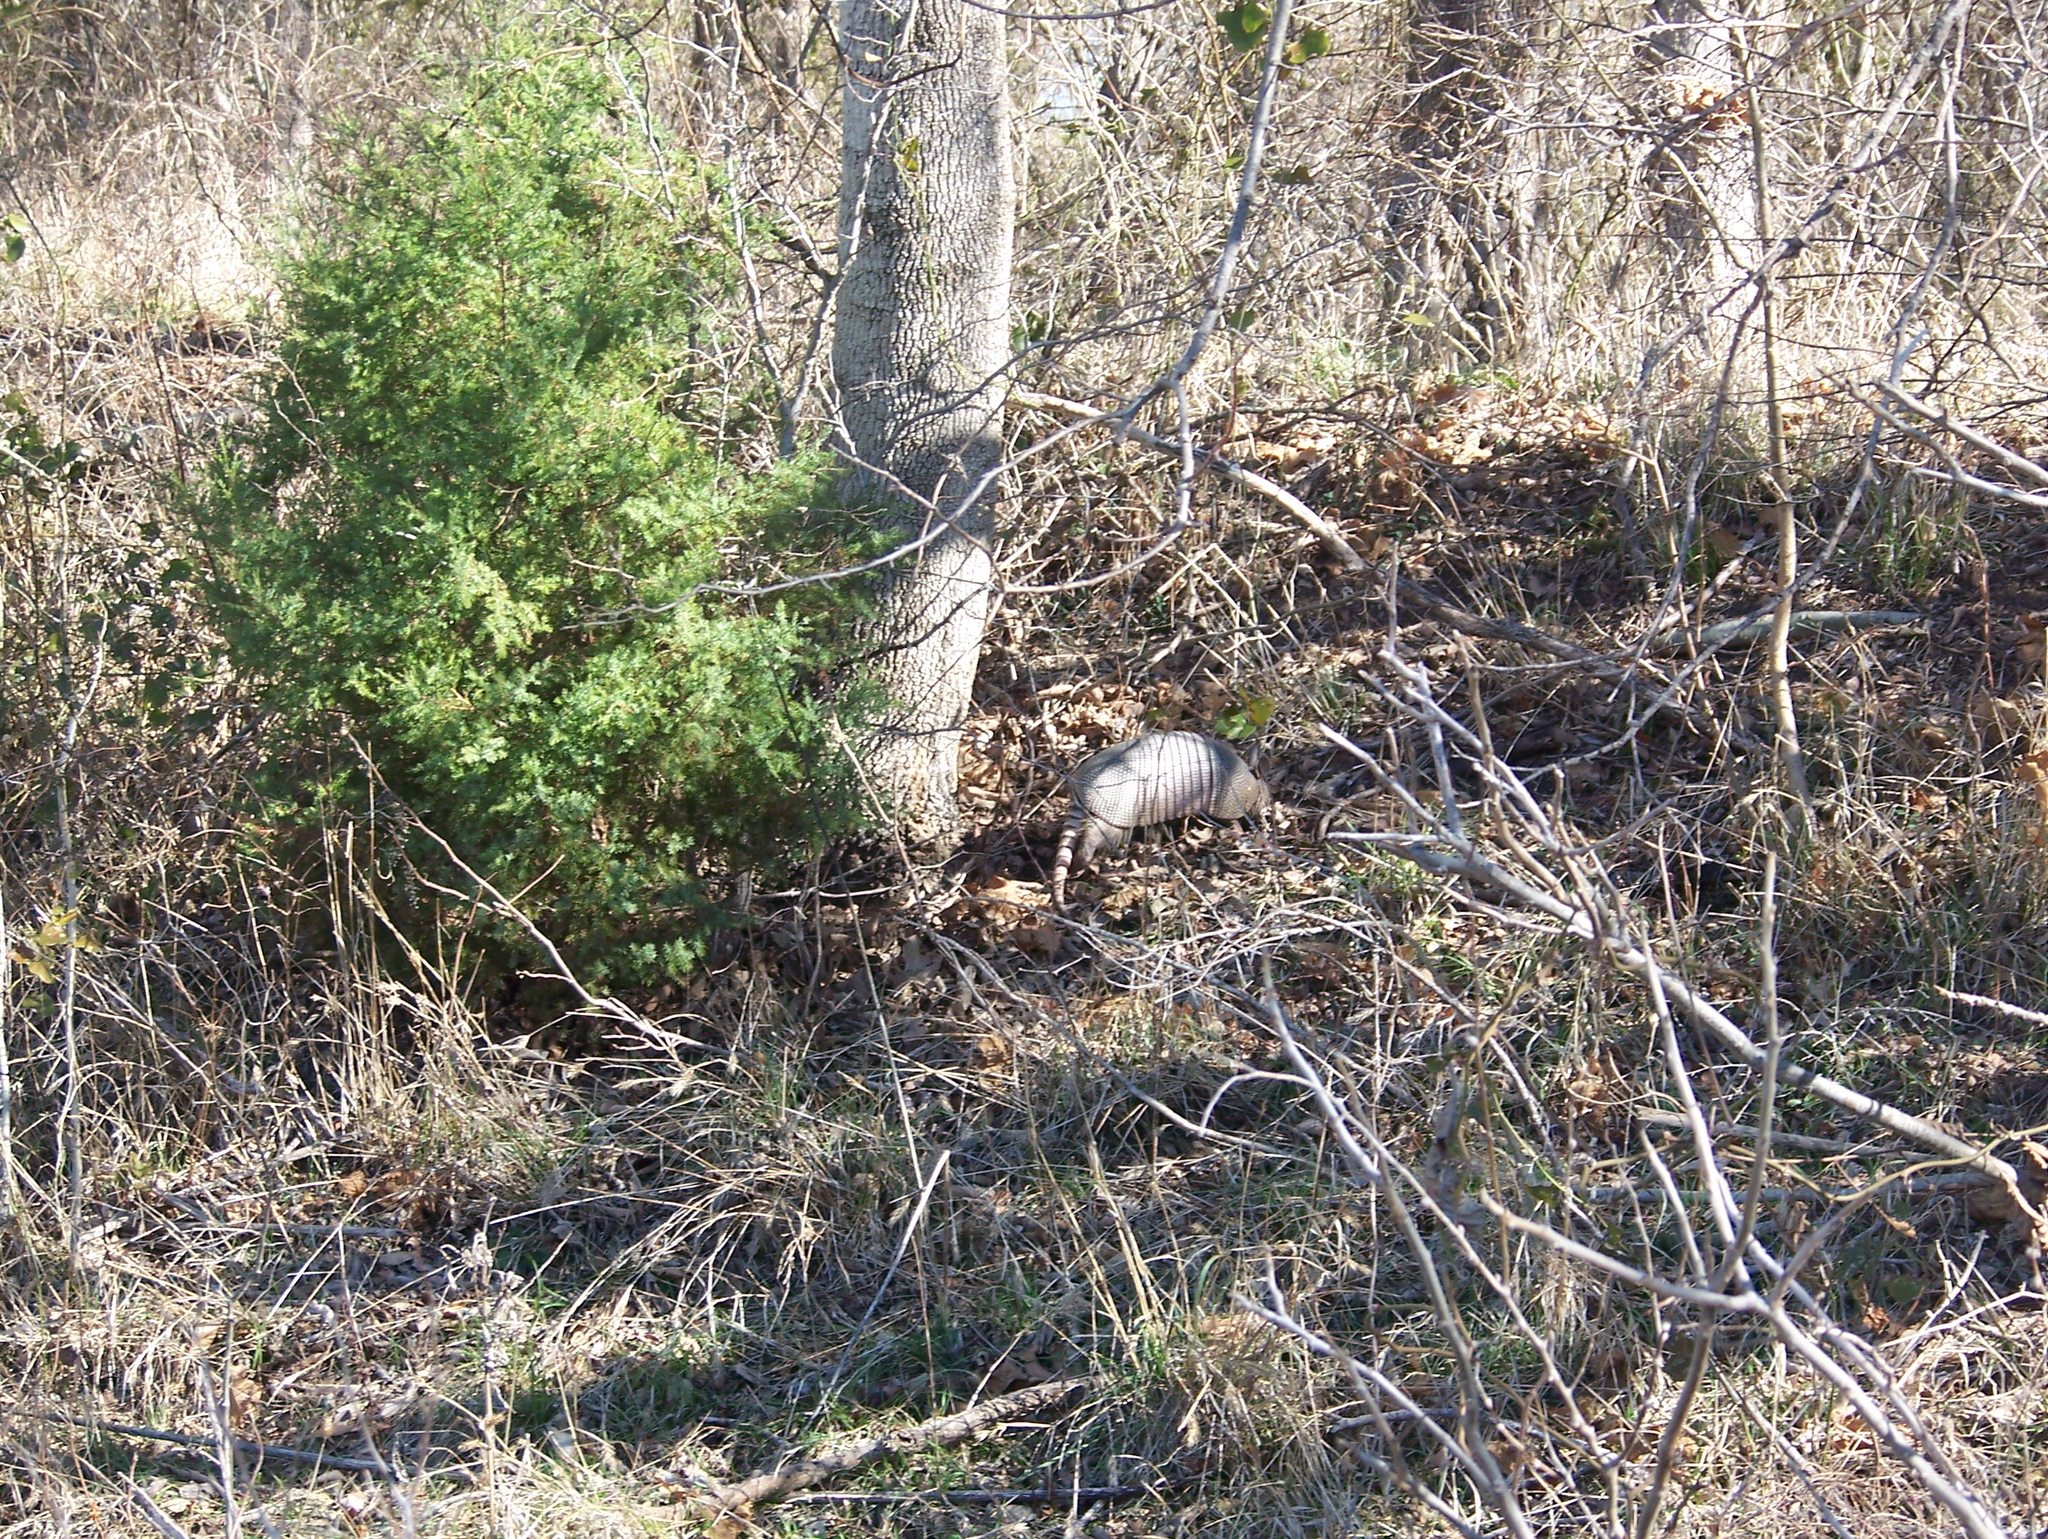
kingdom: Animalia
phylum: Chordata
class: Mammalia
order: Cingulata
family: Dasypodidae
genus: Dasypus
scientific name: Dasypus novemcinctus
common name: Nine-banded armadillo
